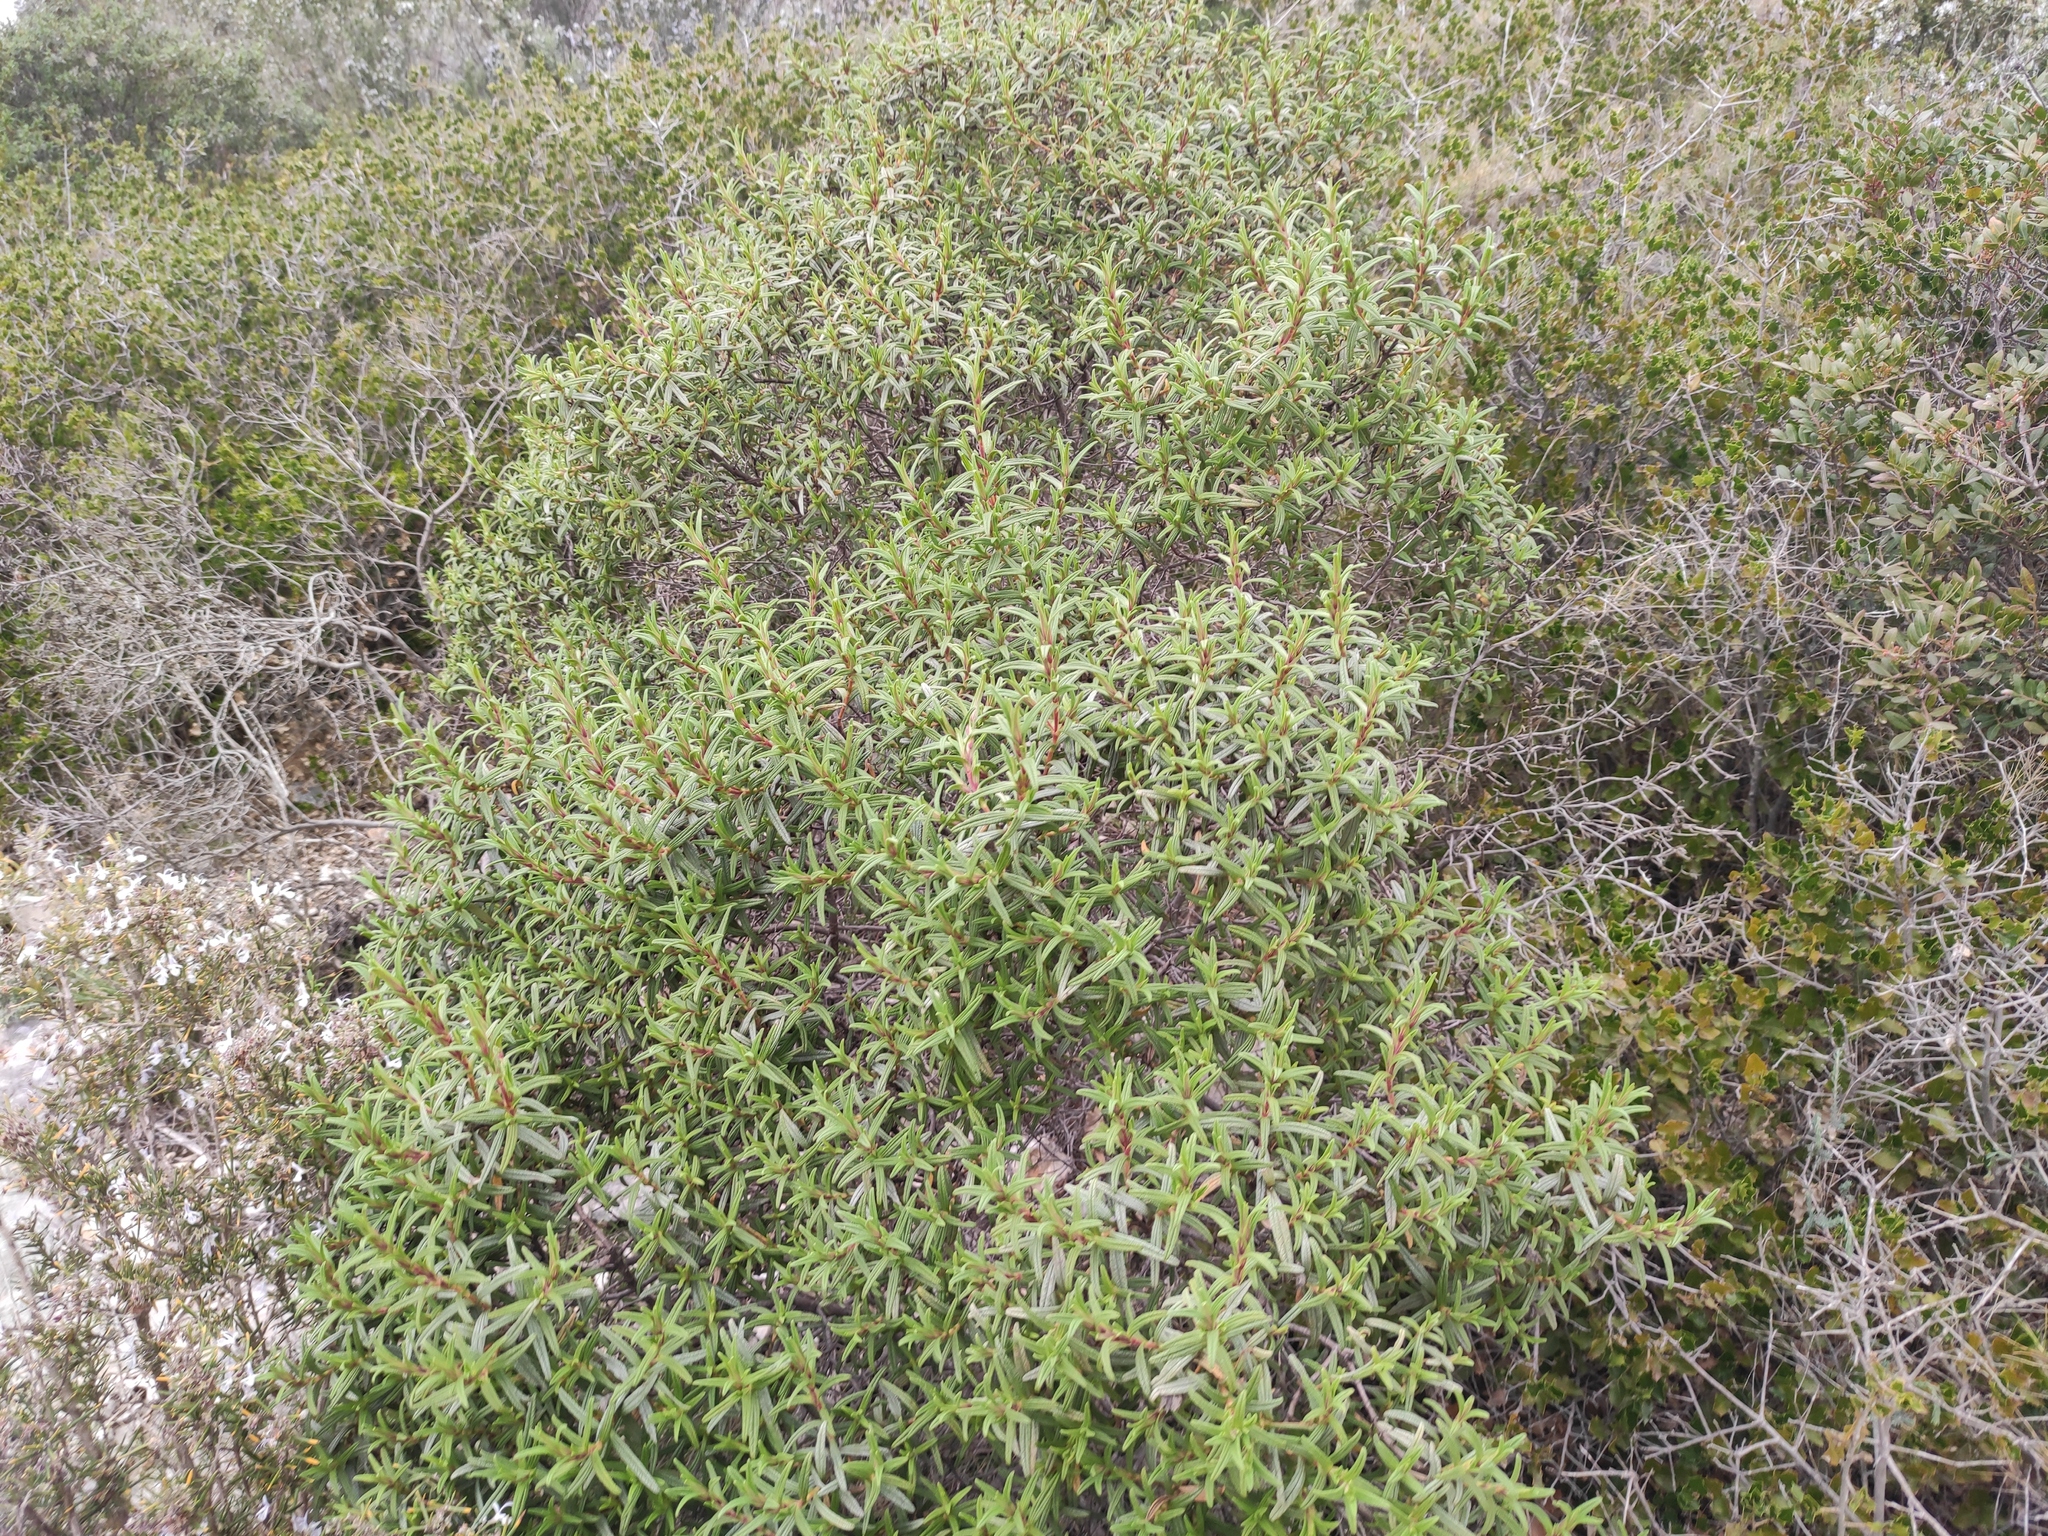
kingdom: Plantae
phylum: Tracheophyta
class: Magnoliopsida
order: Malvales
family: Cistaceae
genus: Cistus
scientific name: Cistus monspeliensis
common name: Montpelier cistus
